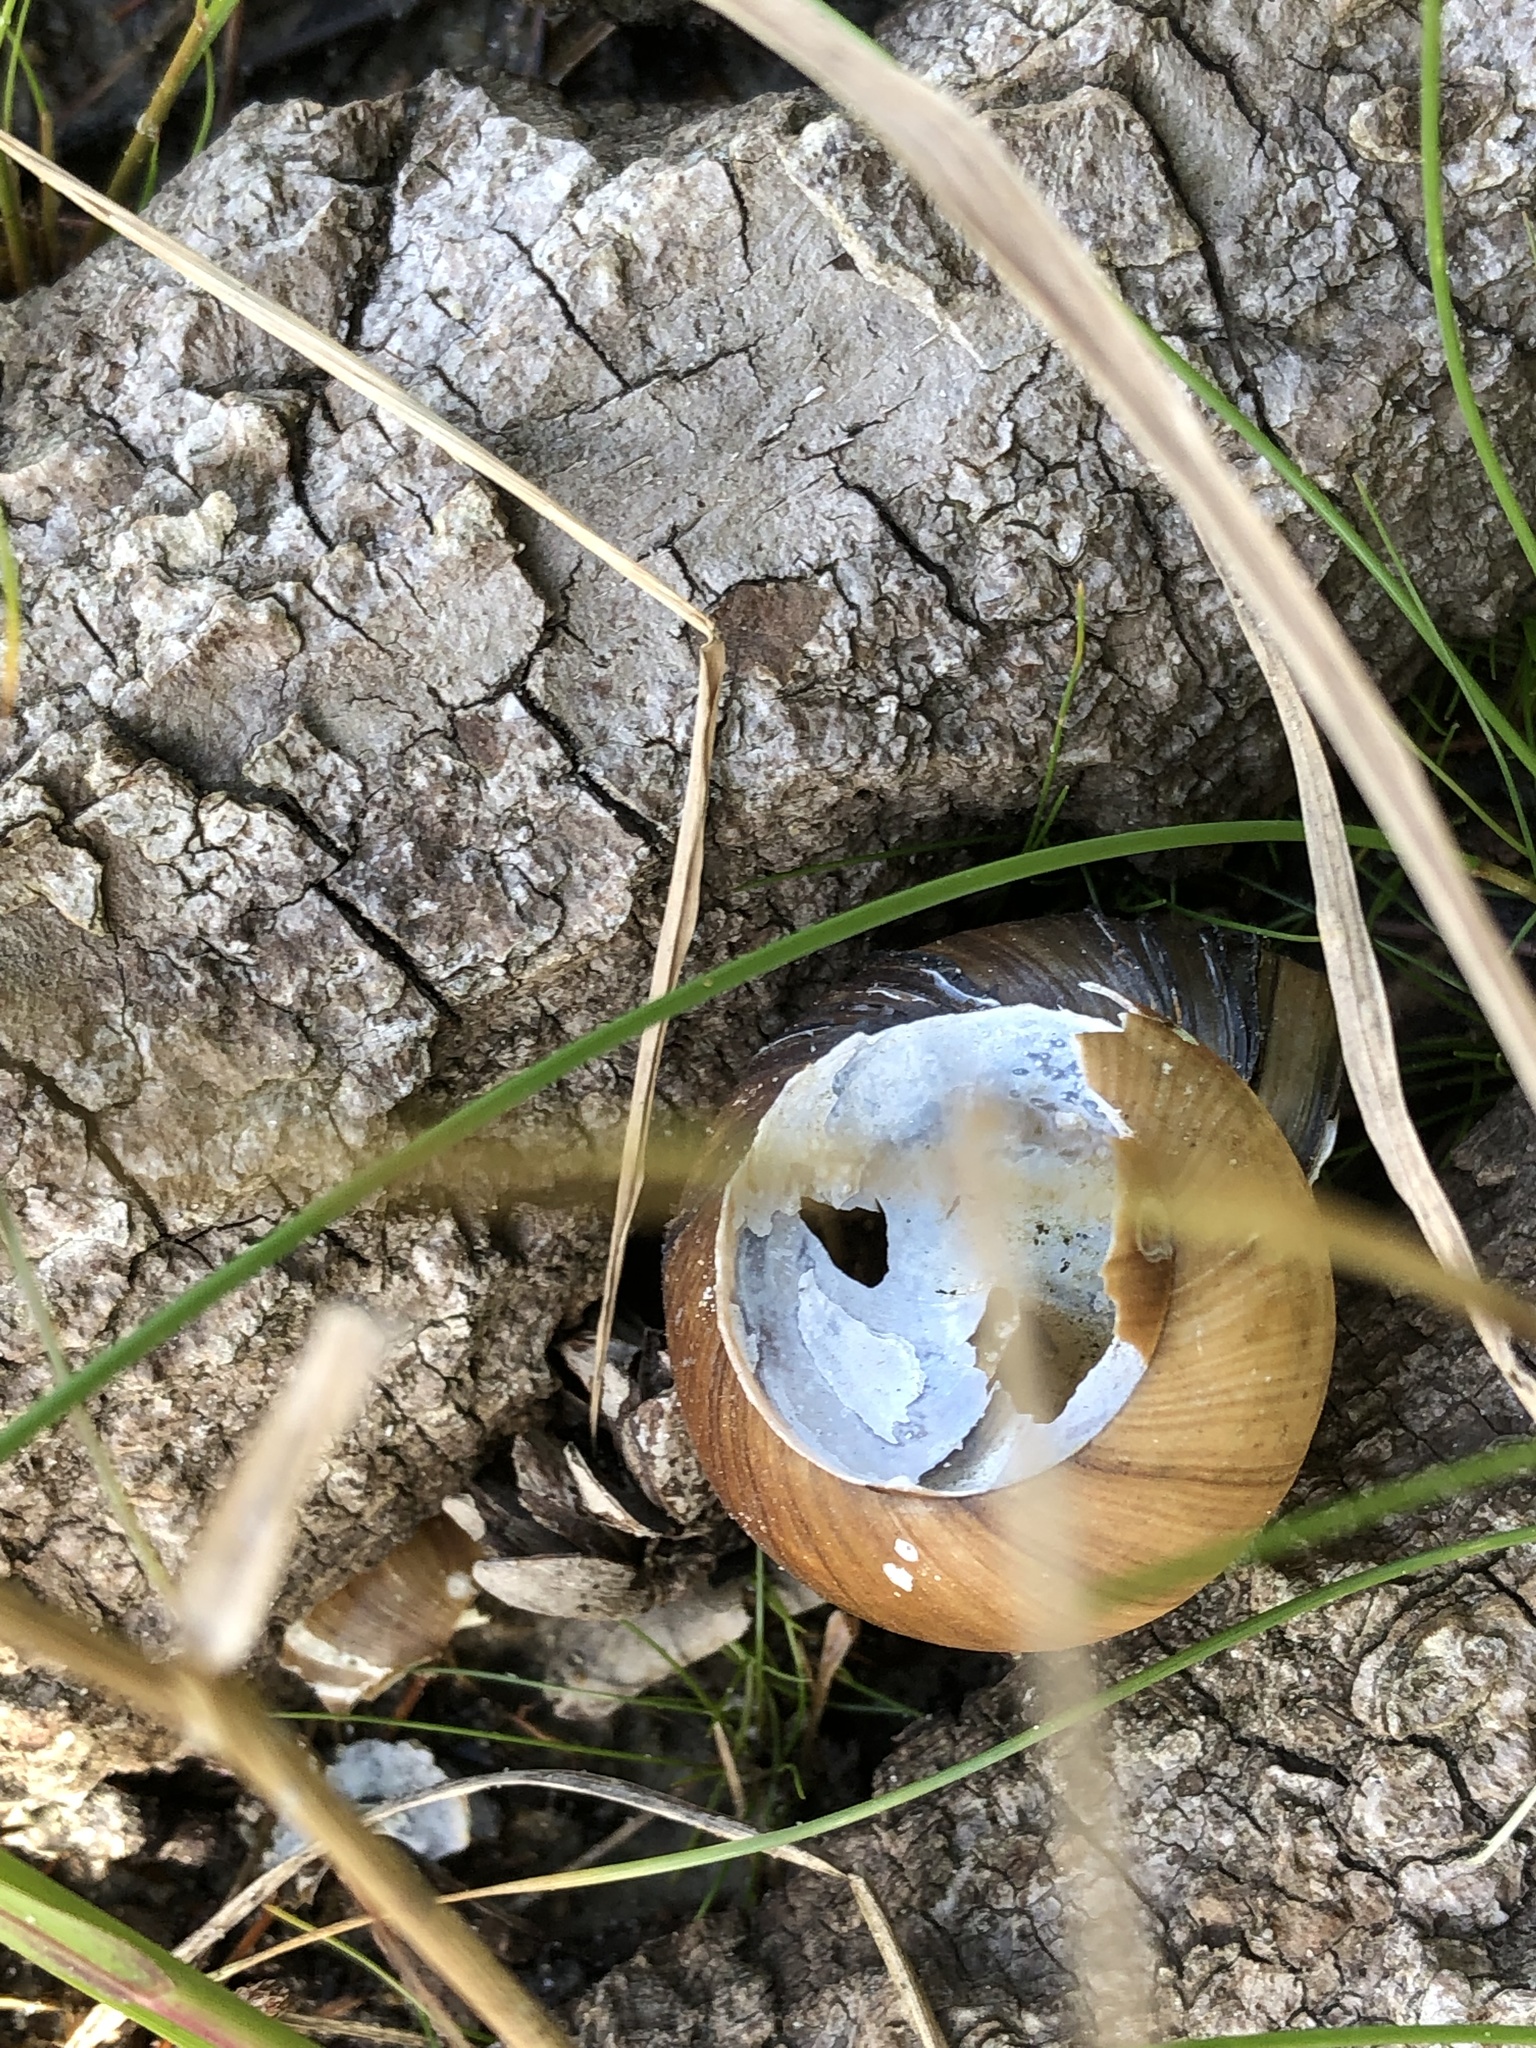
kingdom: Animalia
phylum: Mollusca
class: Gastropoda
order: Architaenioglossa
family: Viviparidae
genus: Cipangopaludina
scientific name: Cipangopaludina chinensis
